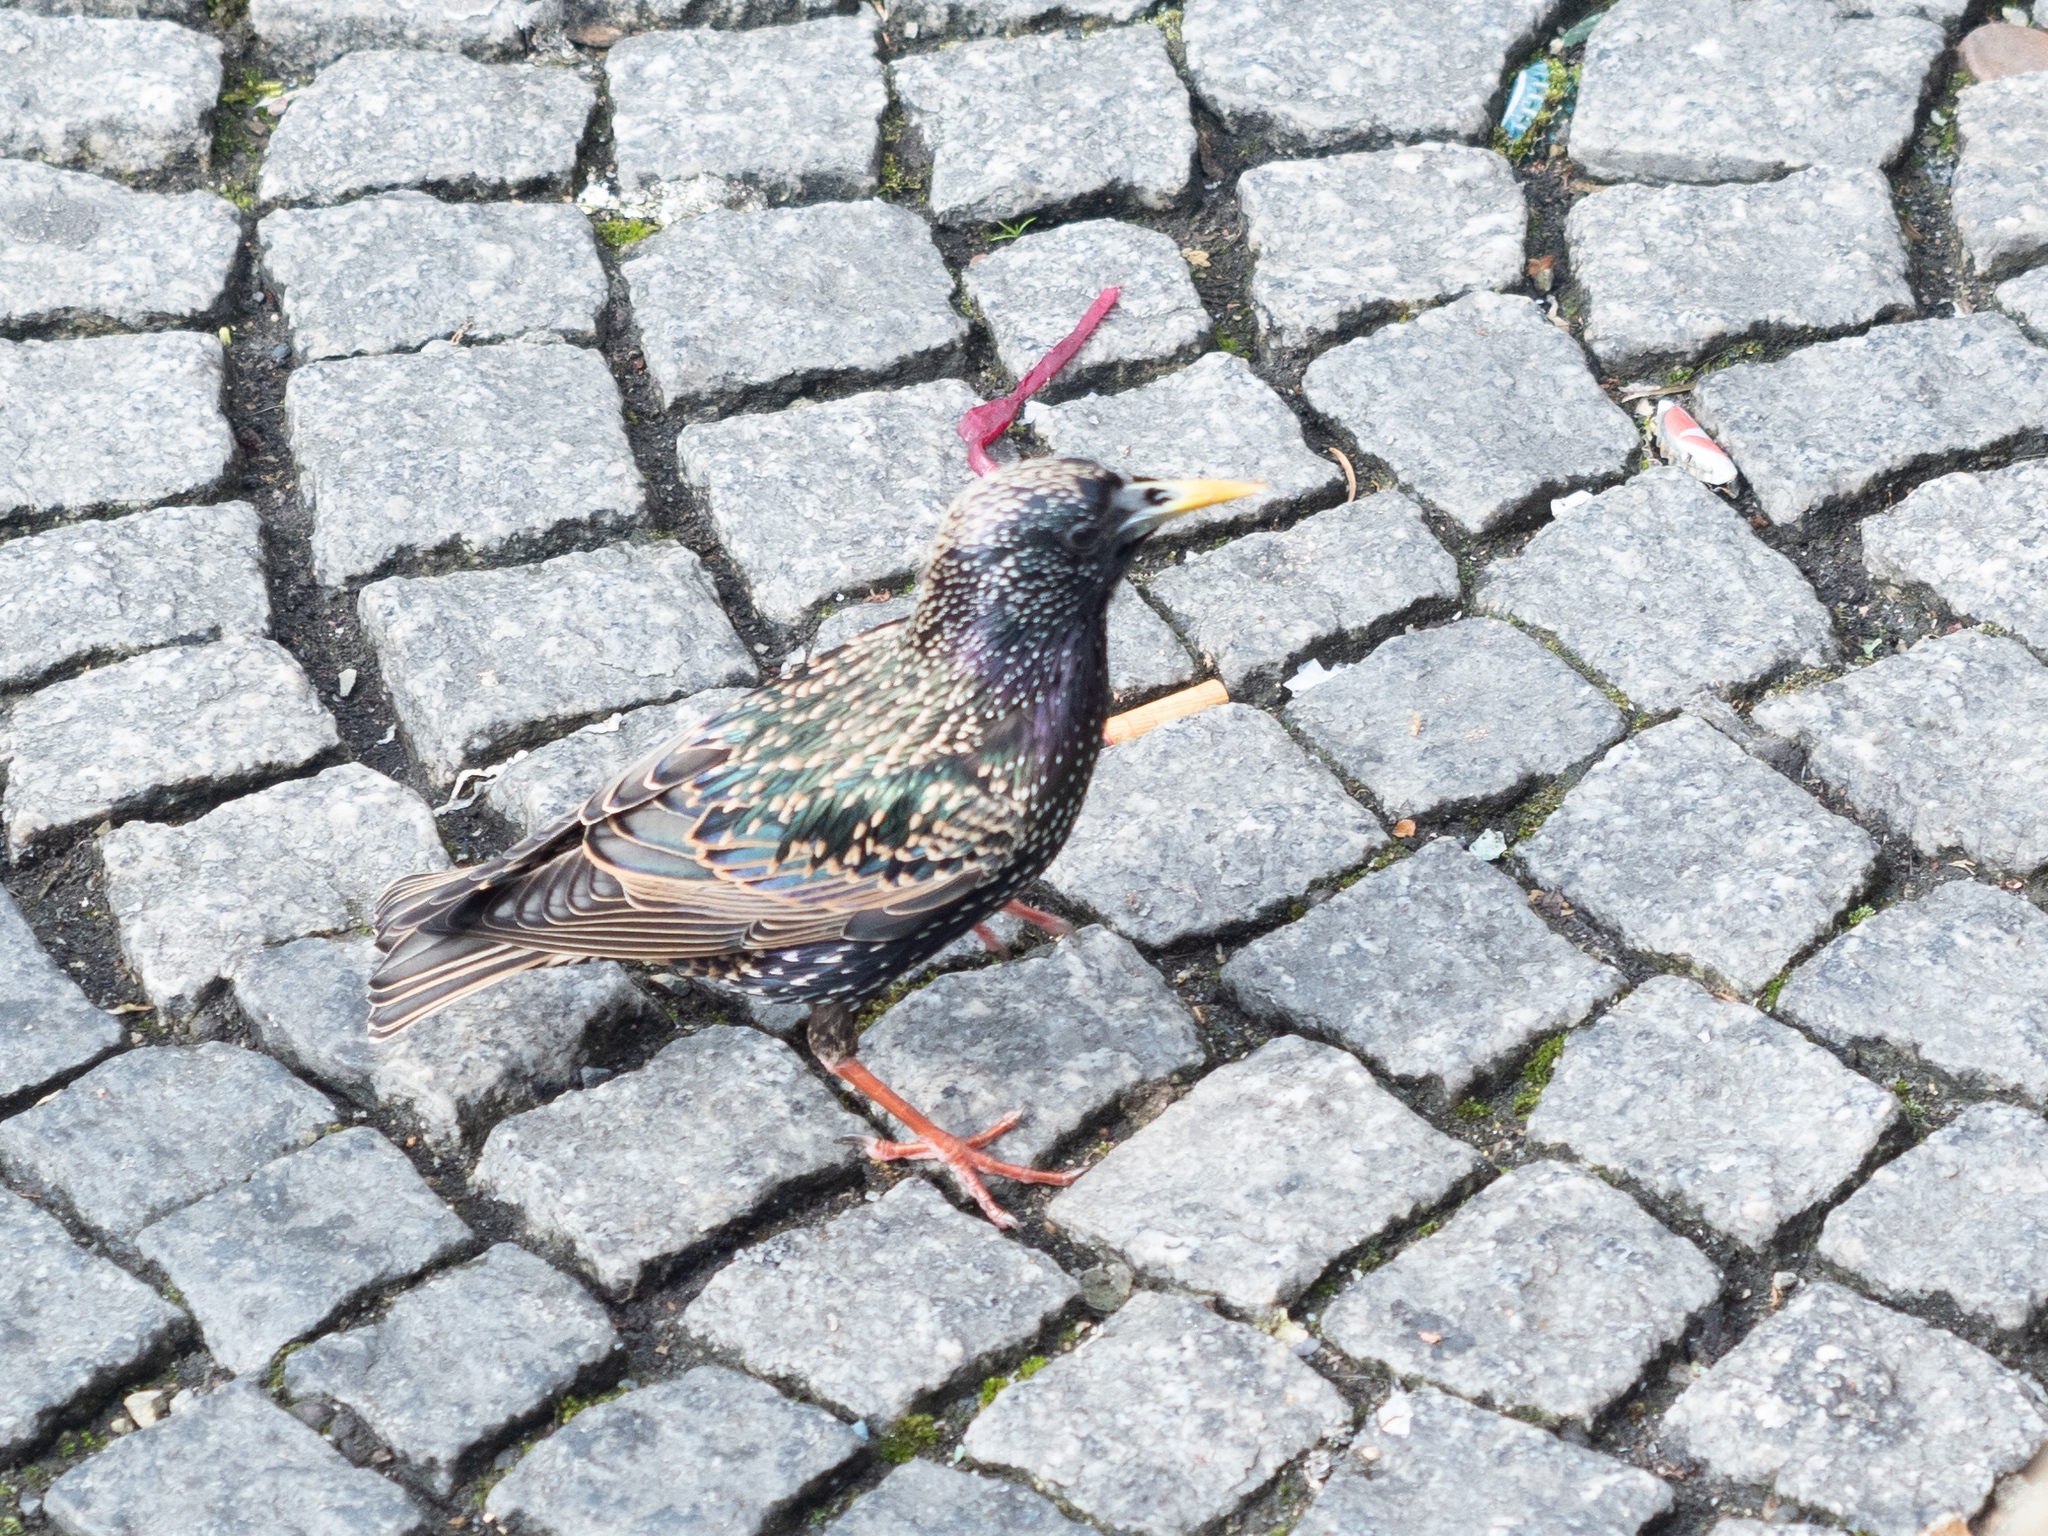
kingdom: Animalia
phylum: Chordata
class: Aves
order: Passeriformes
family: Sturnidae
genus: Sturnus
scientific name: Sturnus vulgaris
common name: Common starling
